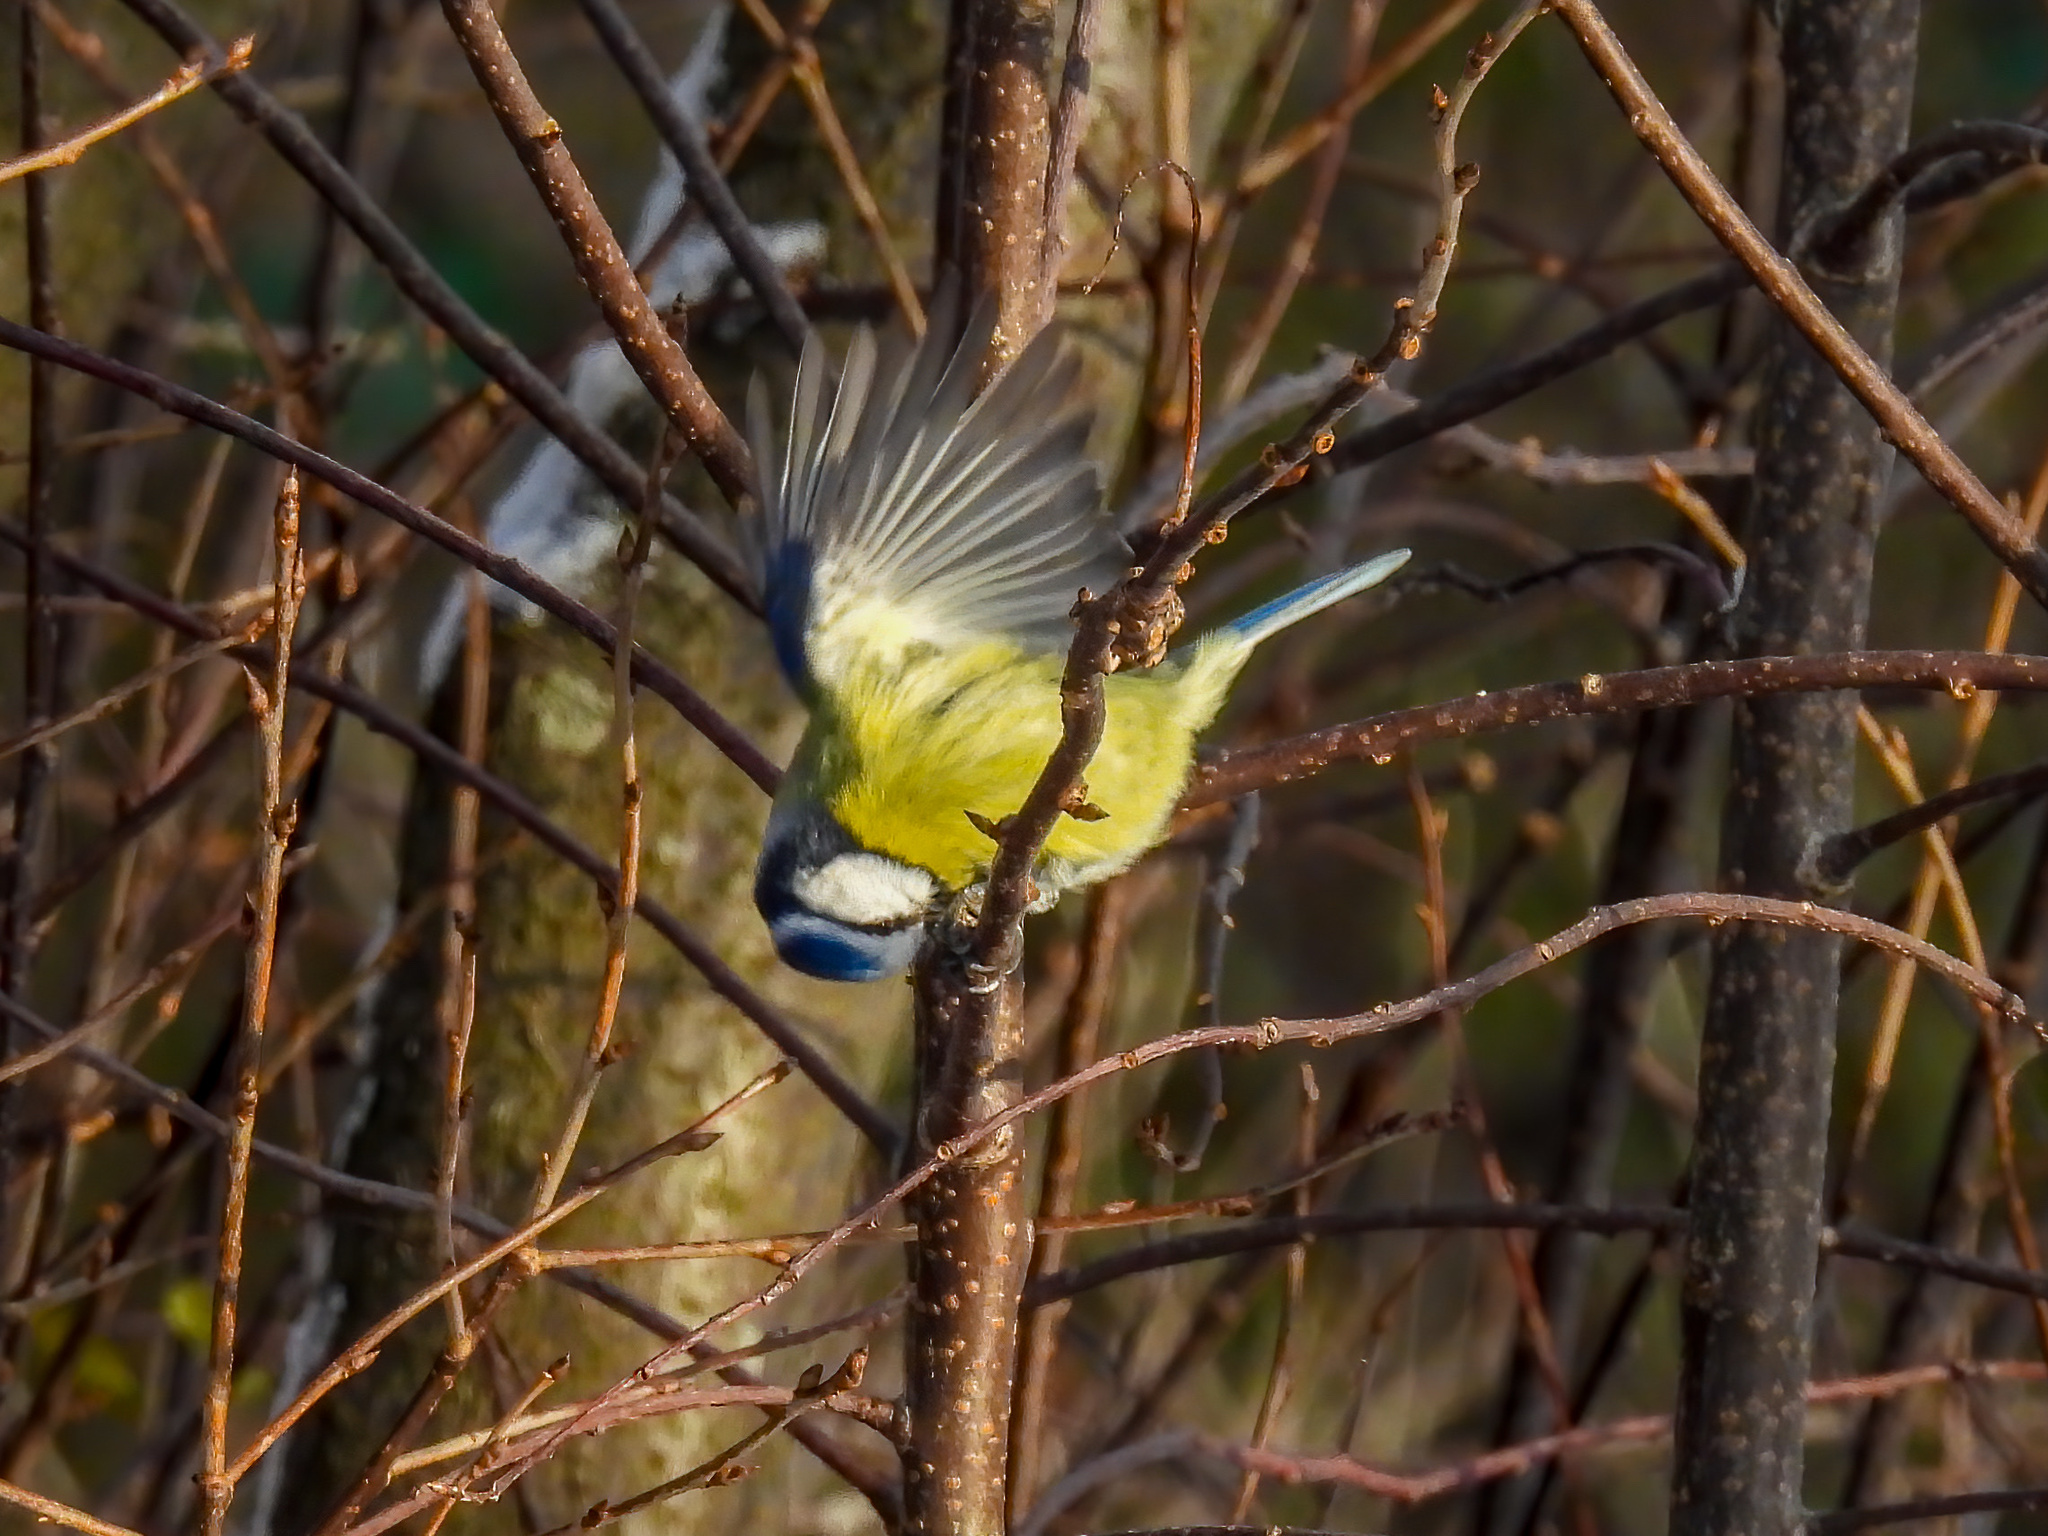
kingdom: Animalia
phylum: Chordata
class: Aves
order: Passeriformes
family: Paridae
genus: Cyanistes
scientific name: Cyanistes caeruleus
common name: Eurasian blue tit
